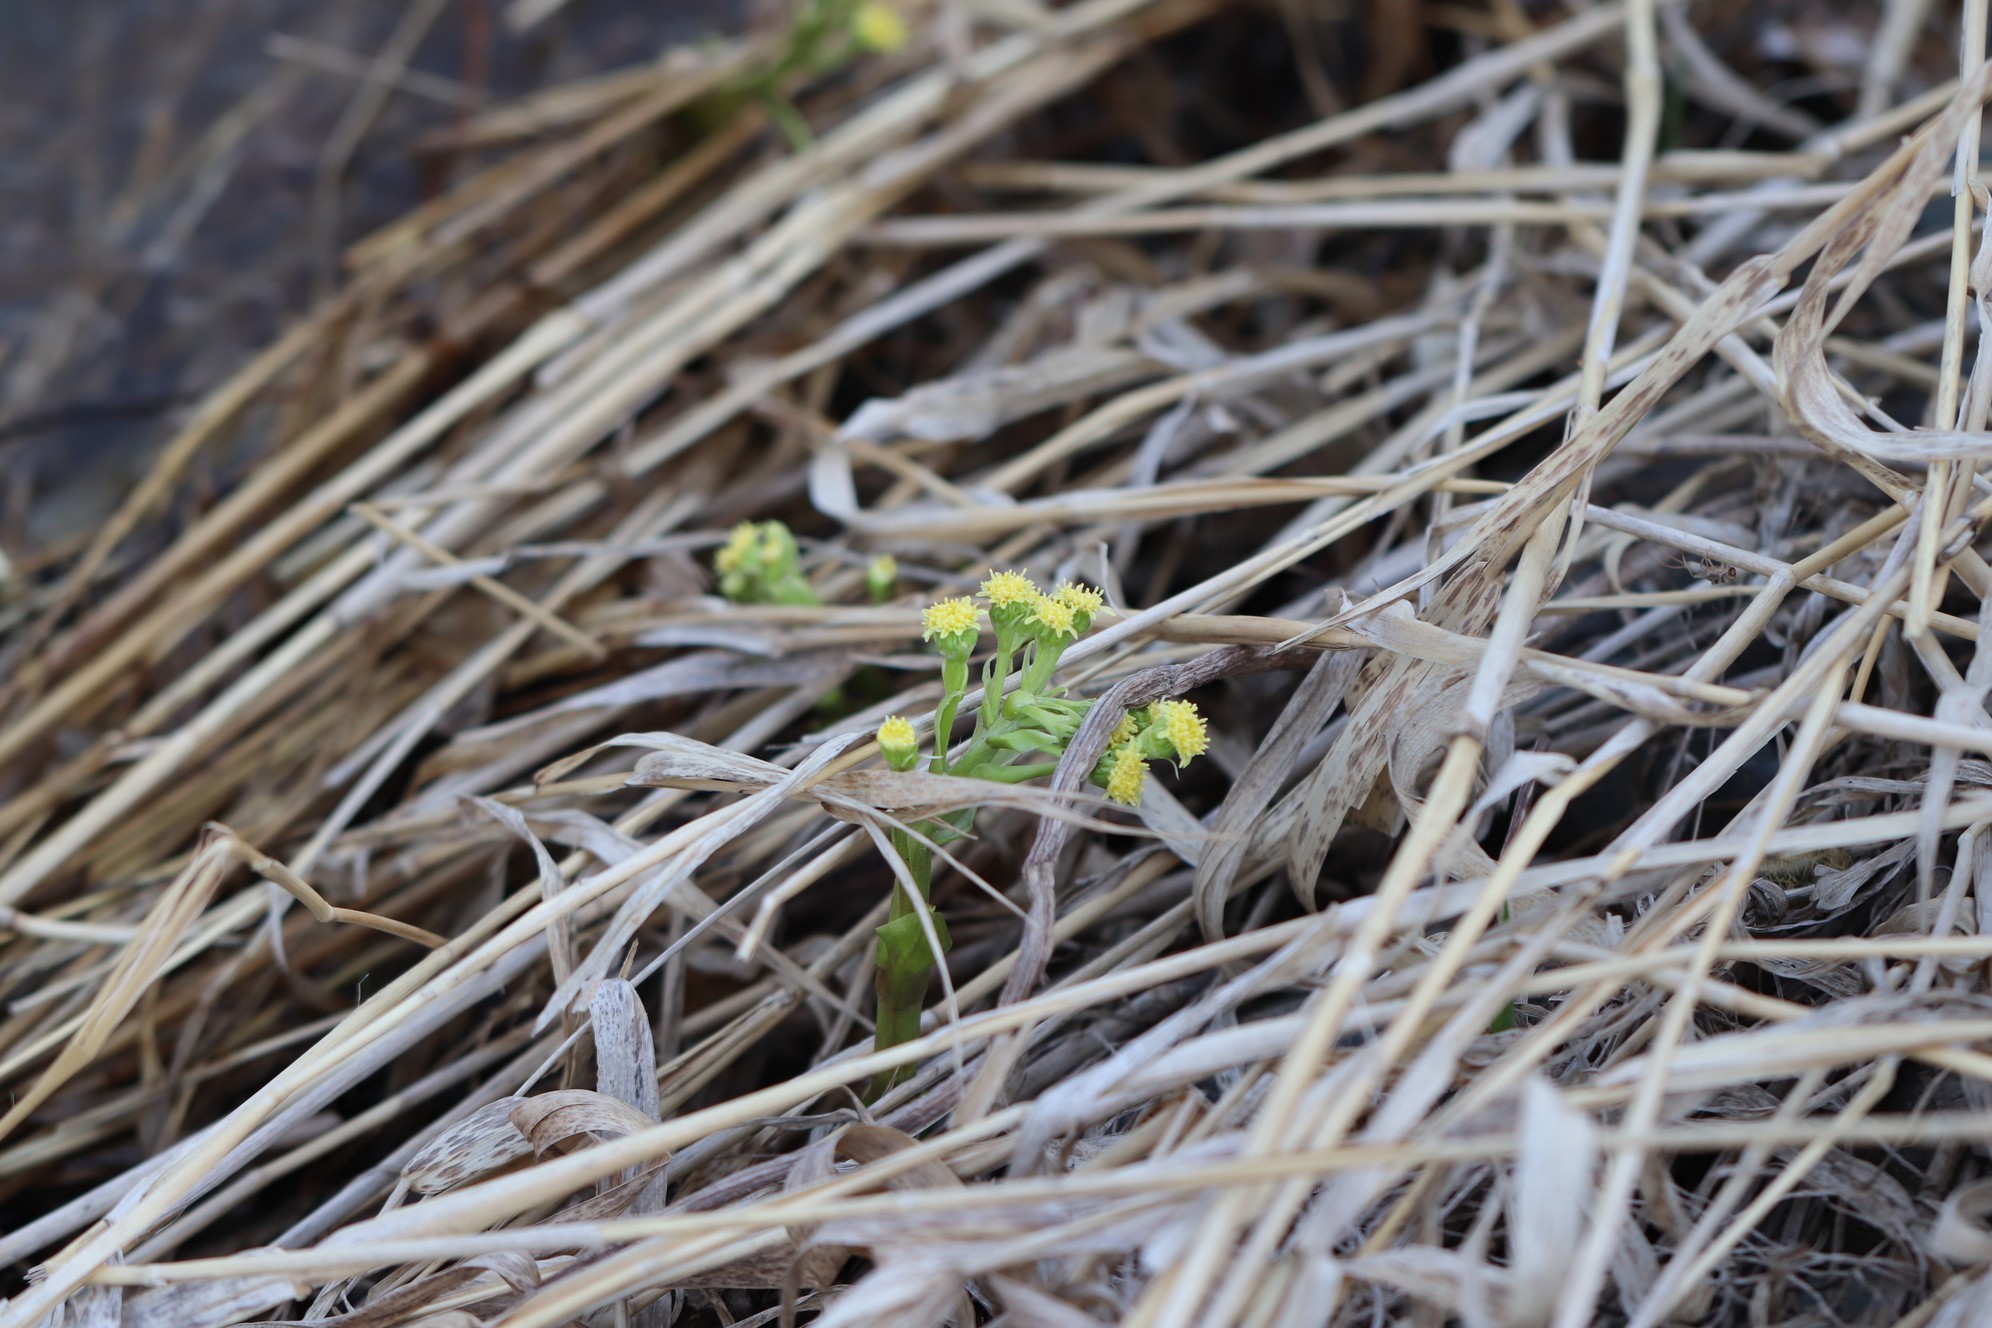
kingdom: Plantae
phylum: Tracheophyta
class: Magnoliopsida
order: Asterales
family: Asteraceae
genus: Petasites
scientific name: Petasites radiatus
